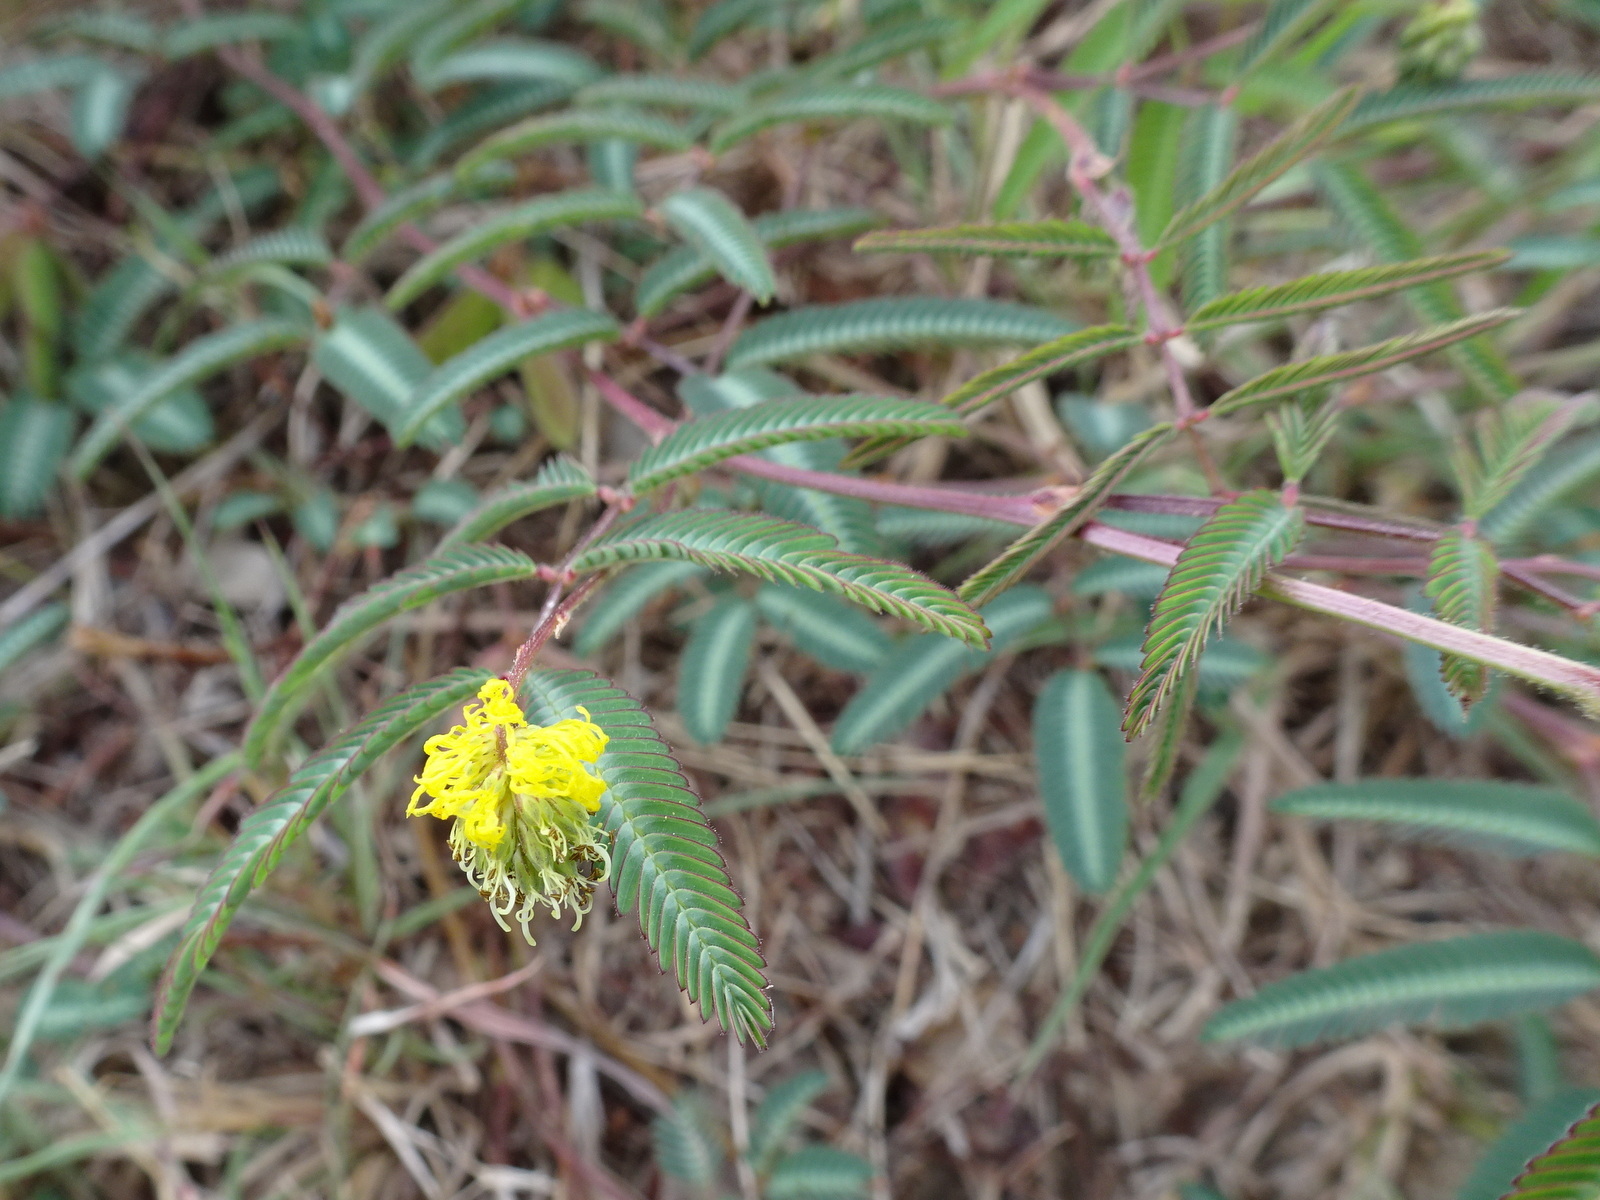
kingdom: Plantae
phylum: Tracheophyta
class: Magnoliopsida
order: Fabales
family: Fabaceae
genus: Neptunia
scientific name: Neptunia pubescens
